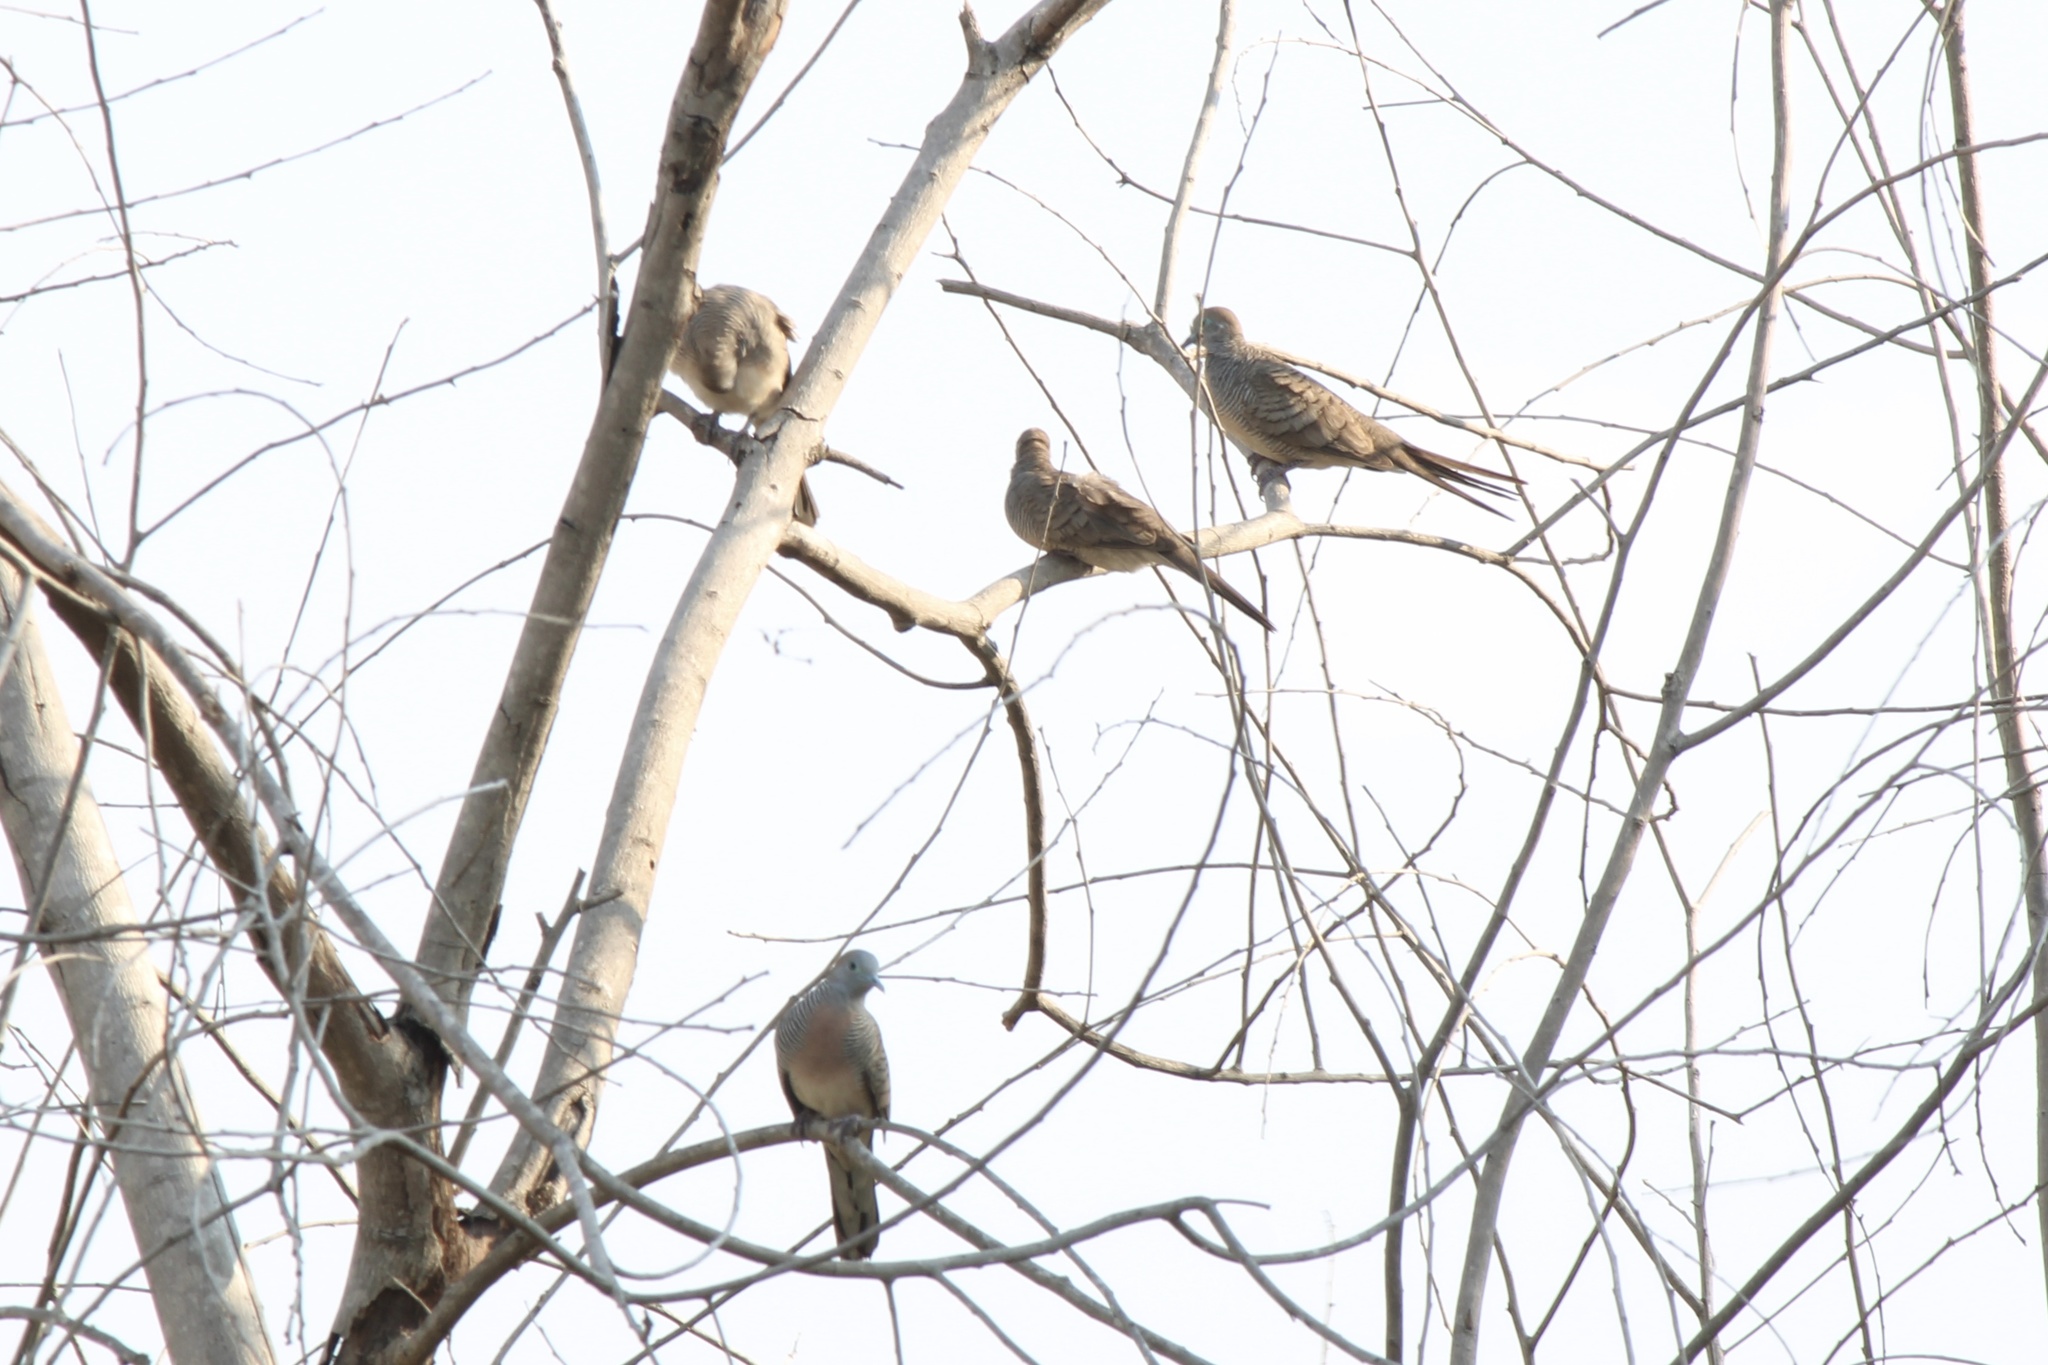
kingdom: Animalia
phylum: Chordata
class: Aves
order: Columbiformes
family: Columbidae
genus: Geopelia
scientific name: Geopelia striata
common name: Zebra dove
